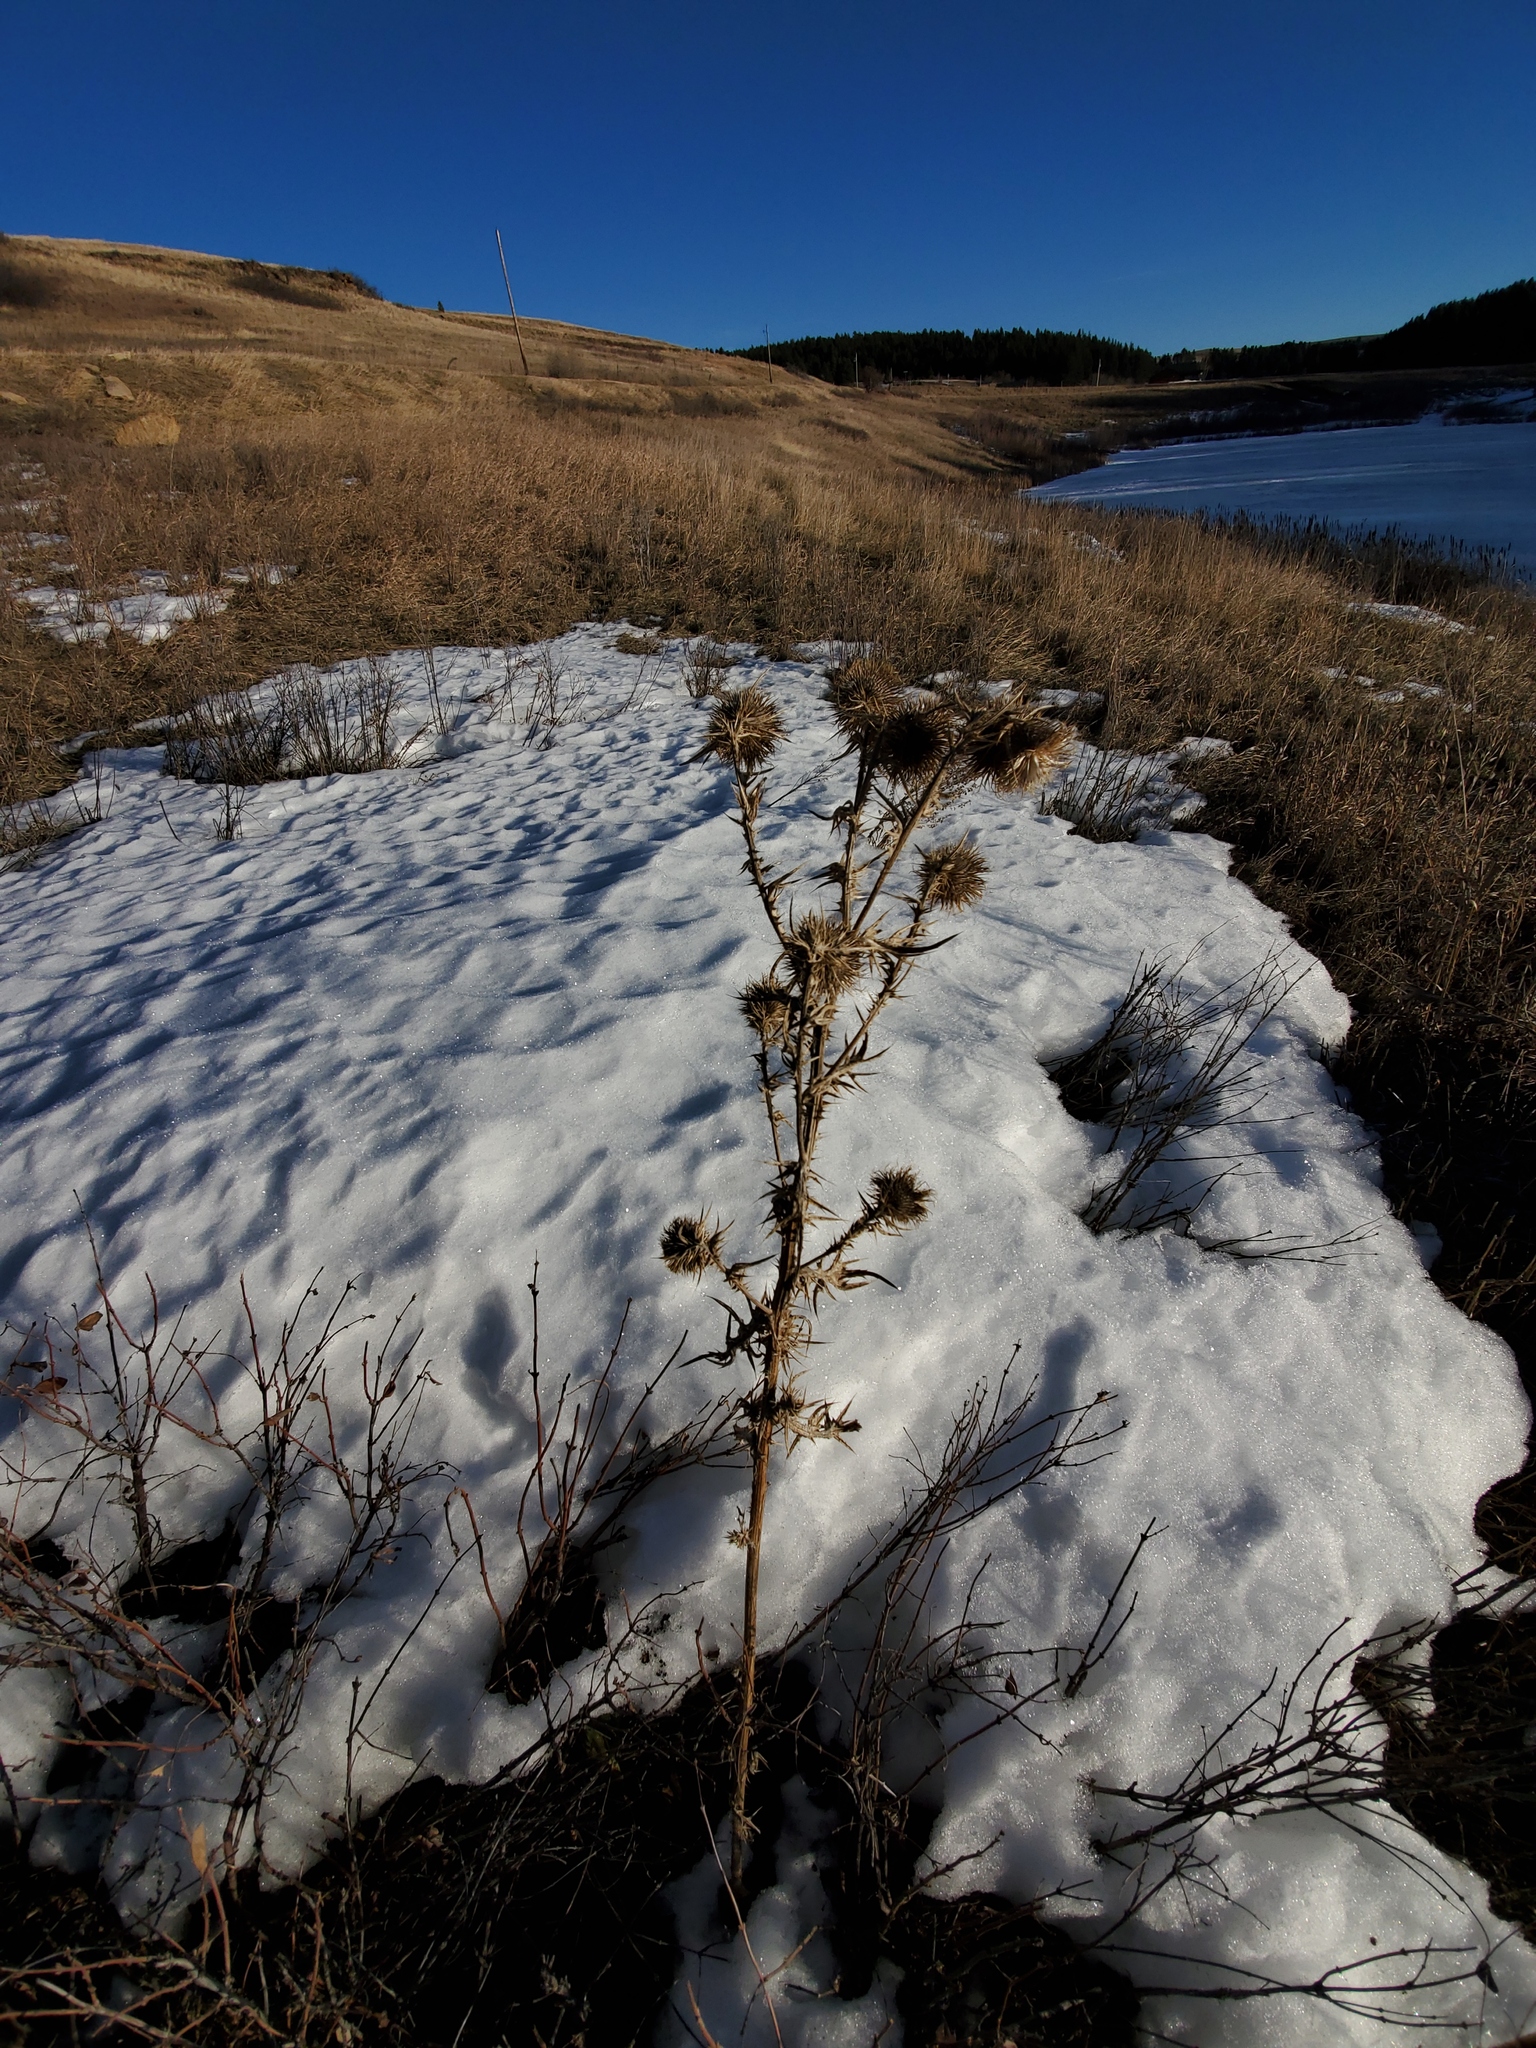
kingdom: Plantae
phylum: Tracheophyta
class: Magnoliopsida
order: Asterales
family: Asteraceae
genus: Cirsium
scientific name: Cirsium vulgare
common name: Bull thistle
